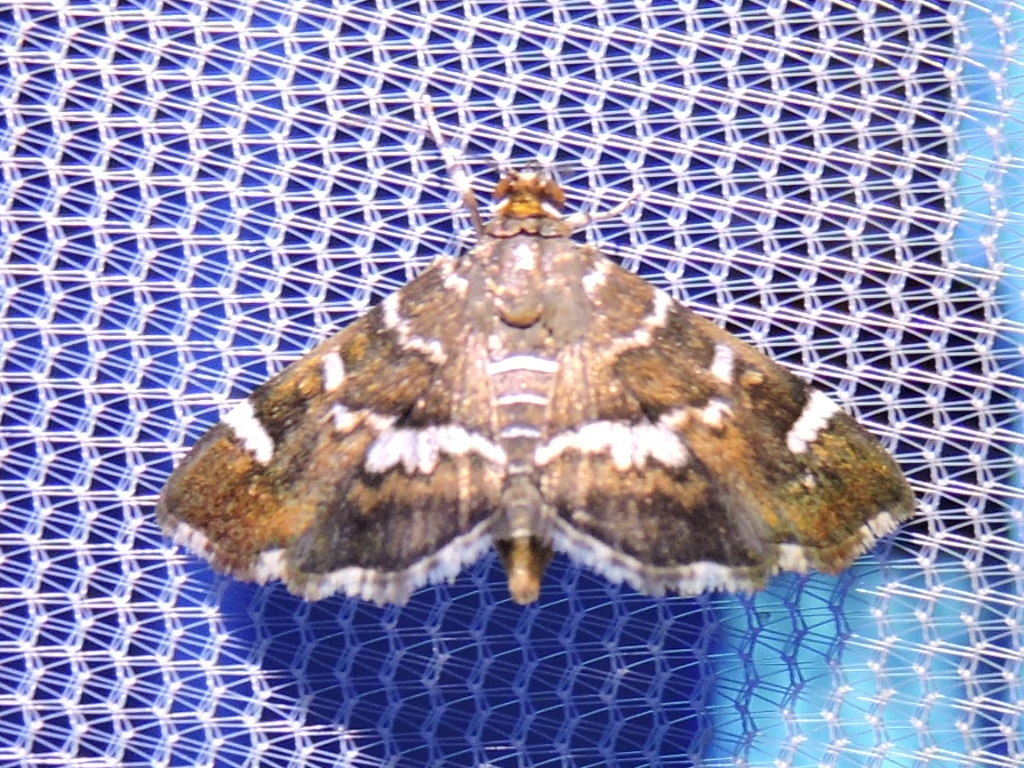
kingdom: Animalia
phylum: Arthropoda
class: Insecta
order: Lepidoptera
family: Crambidae
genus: Hymenia
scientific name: Hymenia perspectalis
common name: Spotted beet webworm
